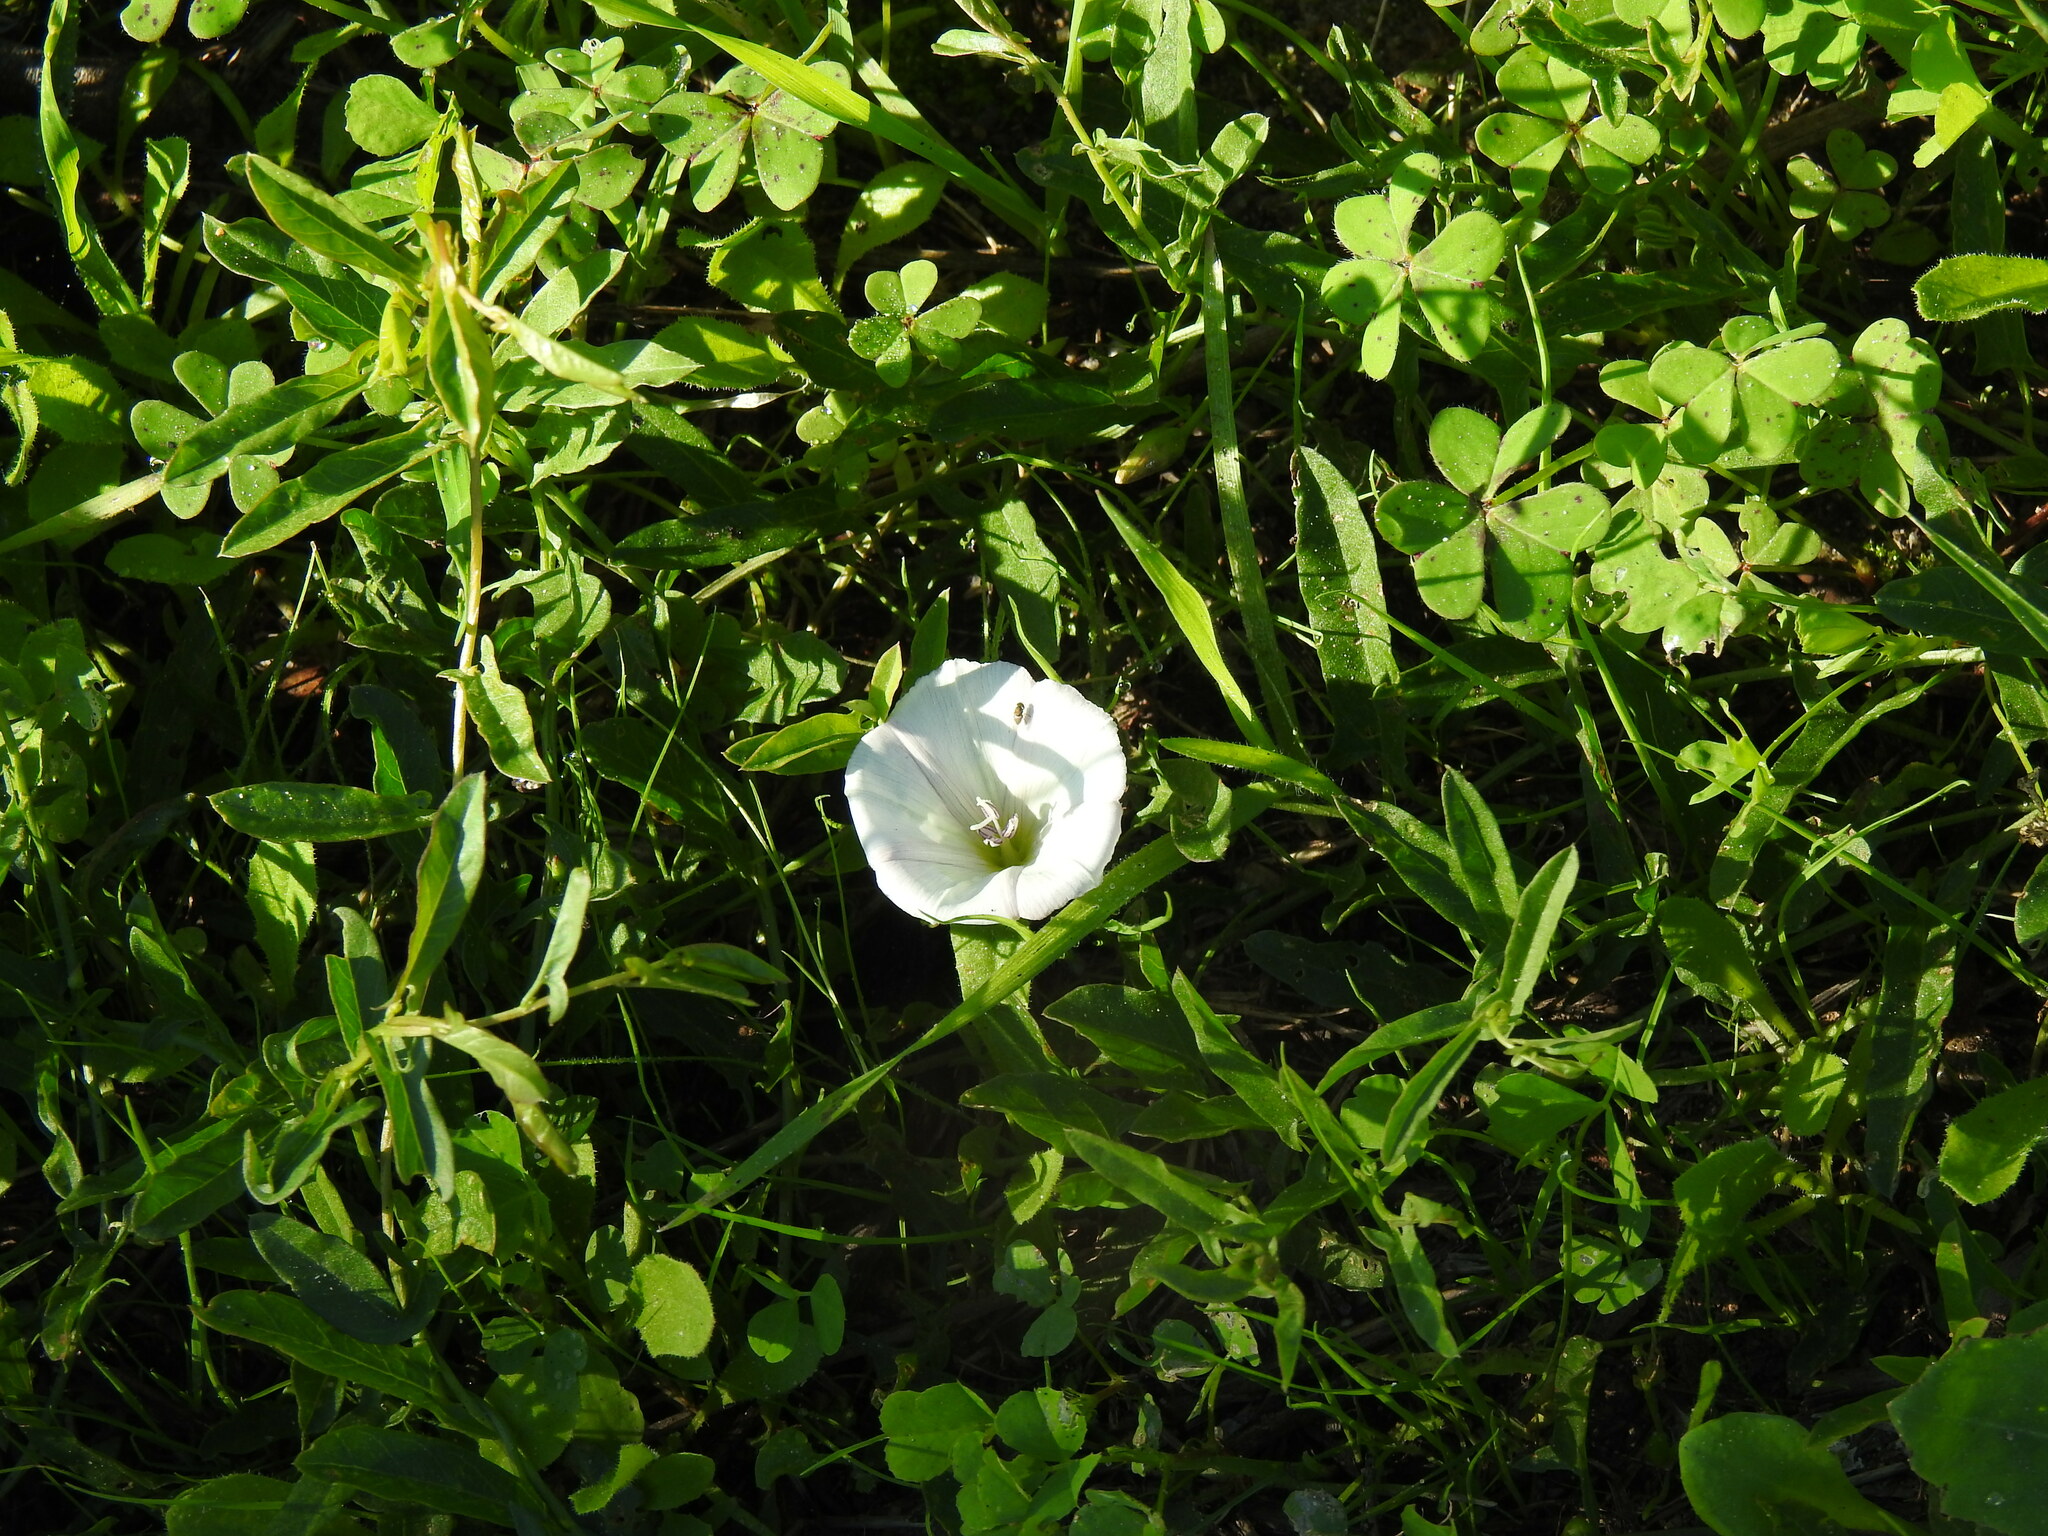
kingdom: Plantae
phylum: Tracheophyta
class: Magnoliopsida
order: Solanales
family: Convolvulaceae
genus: Convolvulus
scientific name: Convolvulus arvensis
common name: Field bindweed
